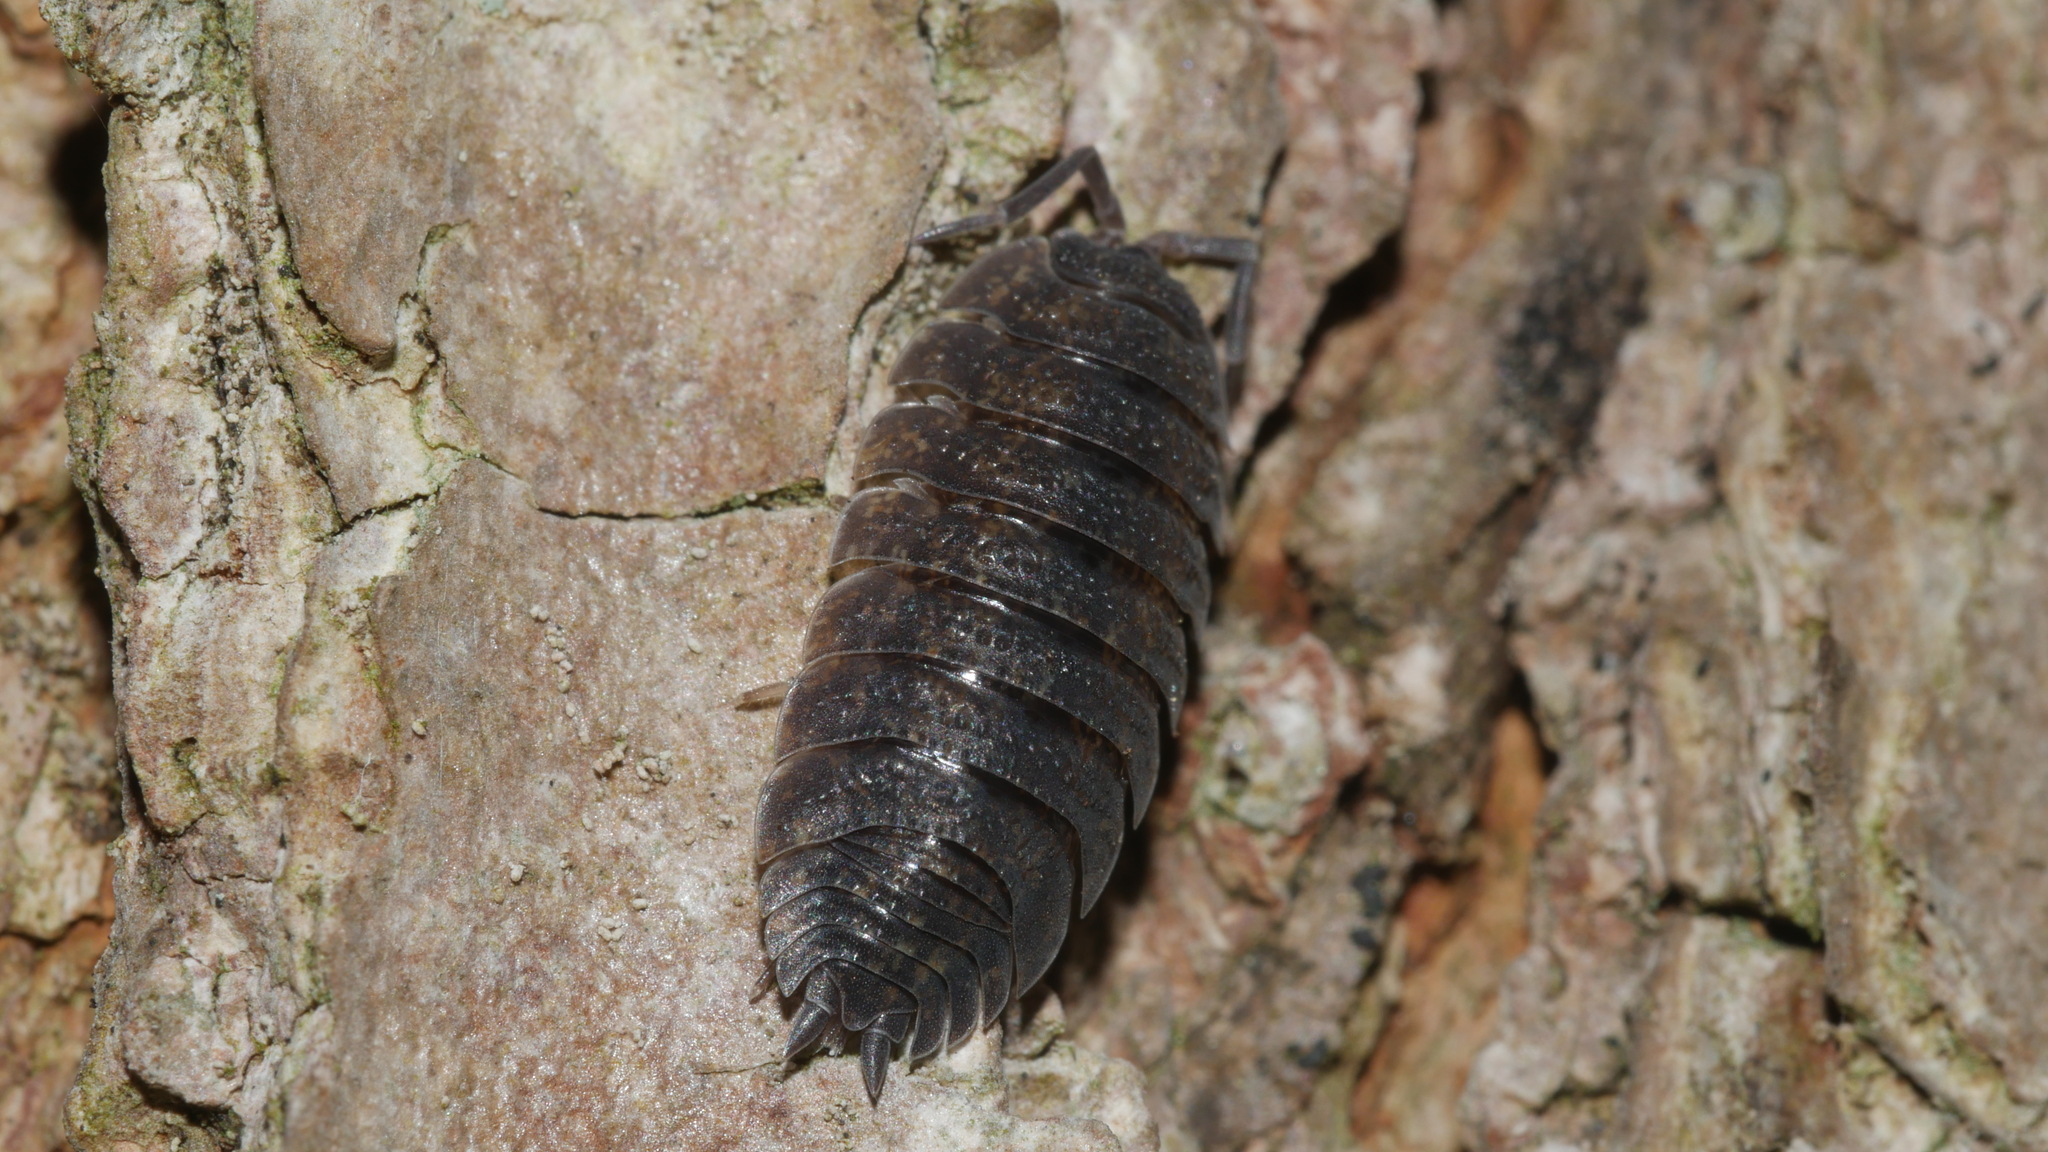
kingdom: Animalia
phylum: Arthropoda
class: Malacostraca
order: Isopoda
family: Porcellionidae
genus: Porcellio
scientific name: Porcellio scaber
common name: Common rough woodlouse
